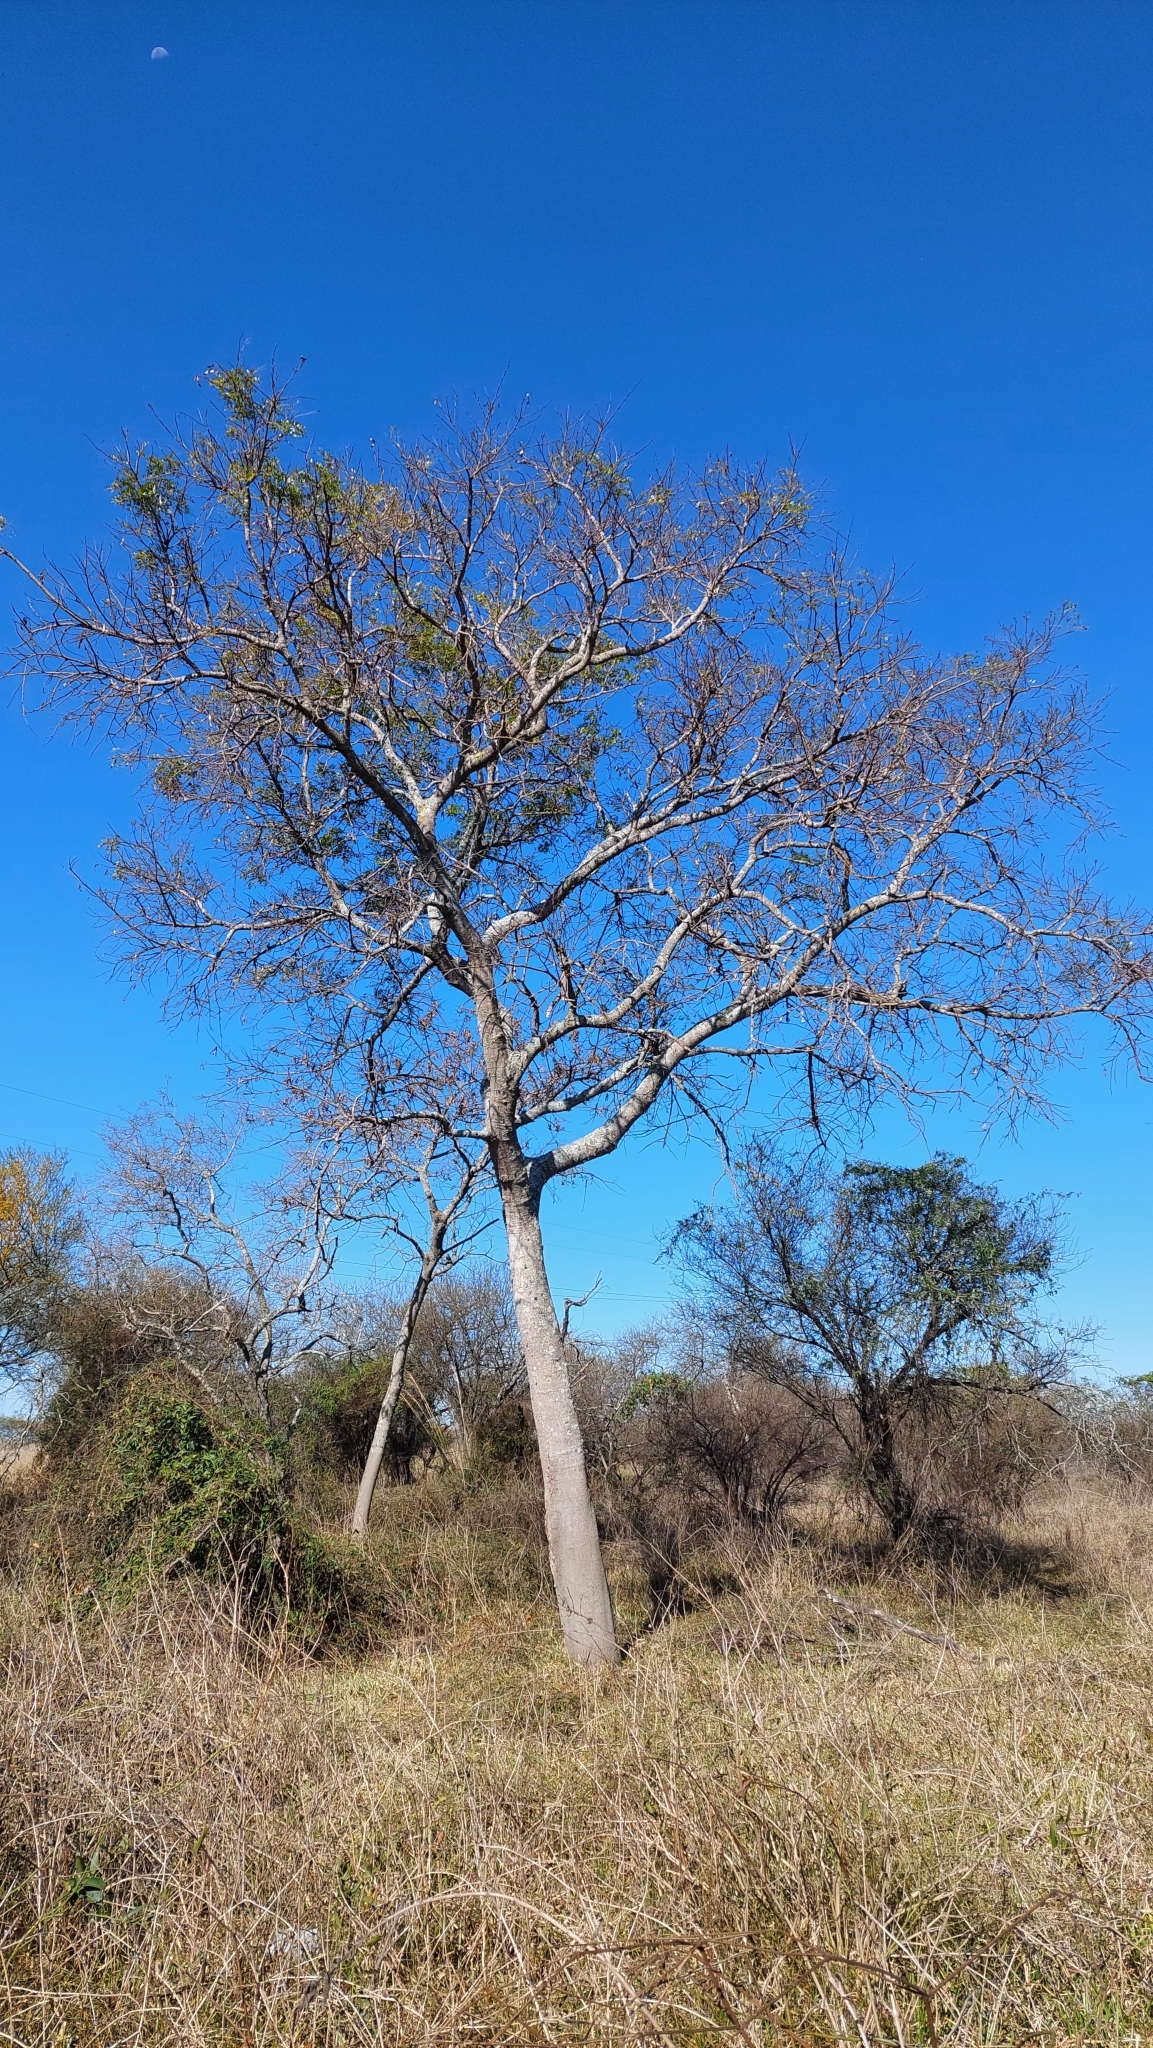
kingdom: Plantae
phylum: Tracheophyta
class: Magnoliopsida
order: Fabales
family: Fabaceae
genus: Albizia
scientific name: Albizia inundata
